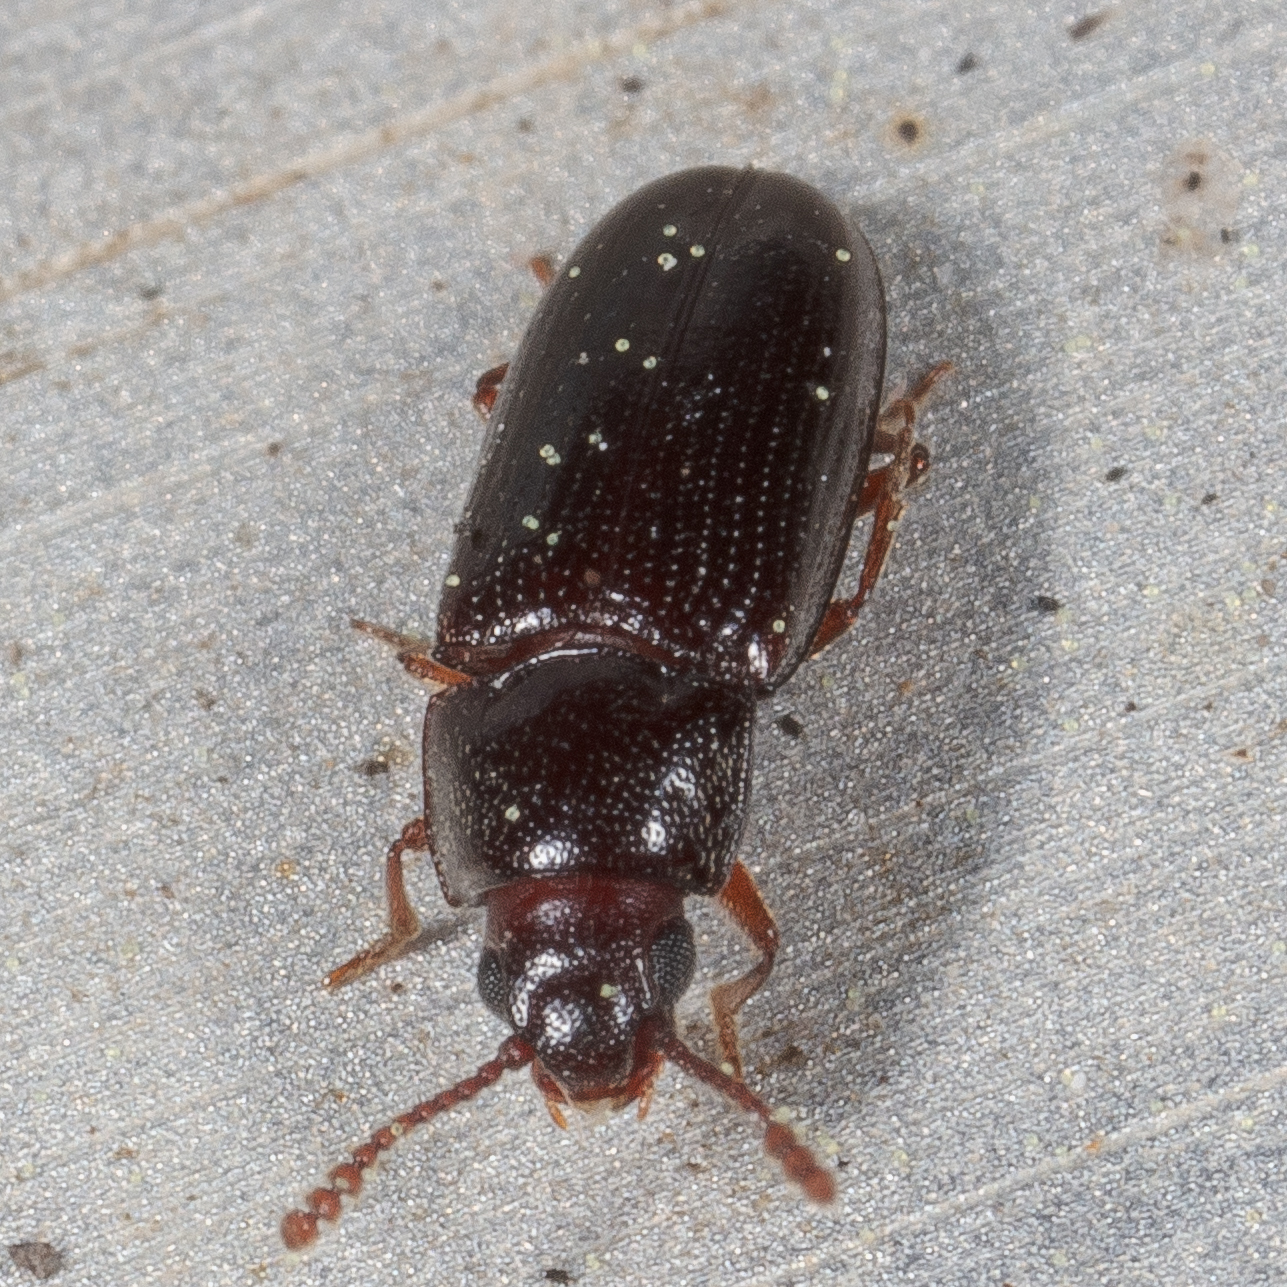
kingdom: Animalia
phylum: Arthropoda
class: Insecta
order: Coleoptera
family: Erotylidae
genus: Pharaxonotha
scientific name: Pharaxonotha kirschii
